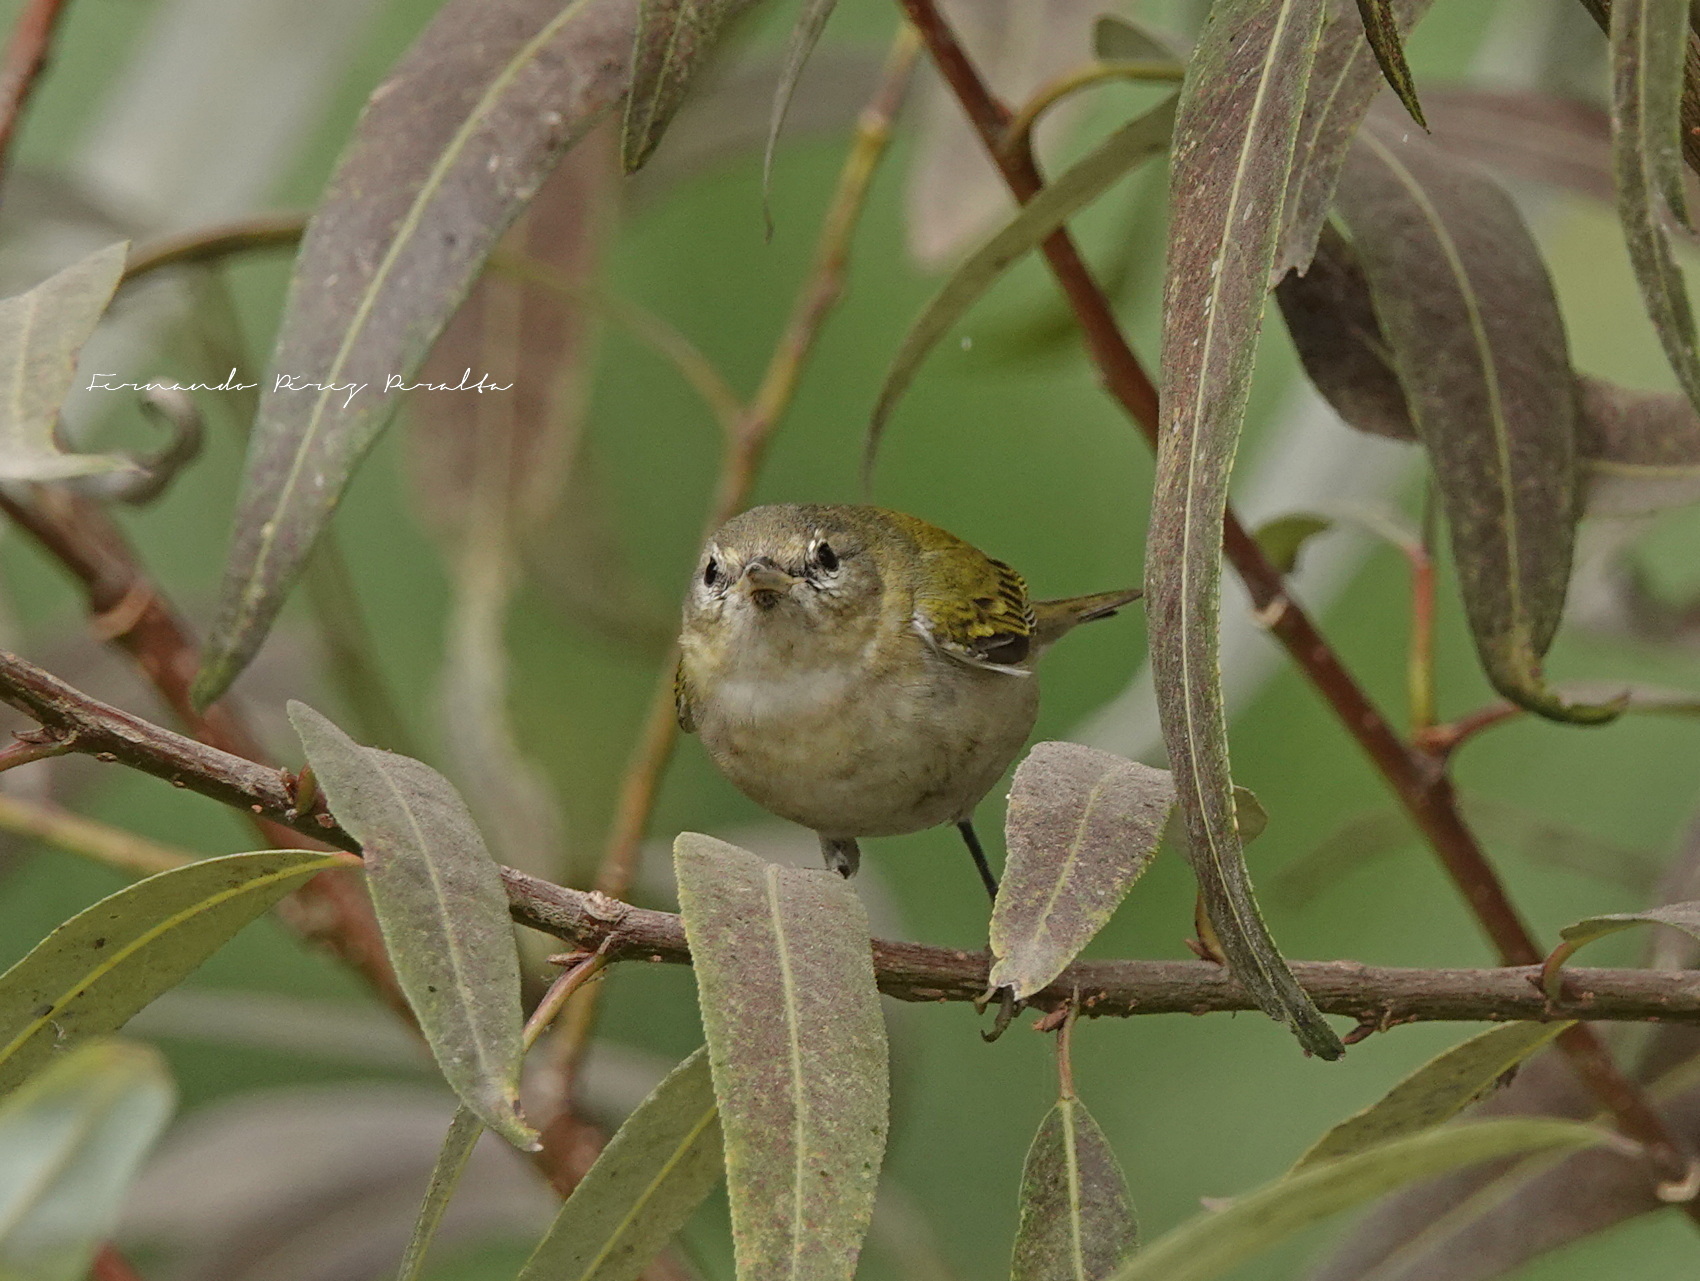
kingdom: Animalia
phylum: Chordata
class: Aves
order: Passeriformes
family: Parulidae
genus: Leiothlypis
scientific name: Leiothlypis peregrina
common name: Tennessee warbler
